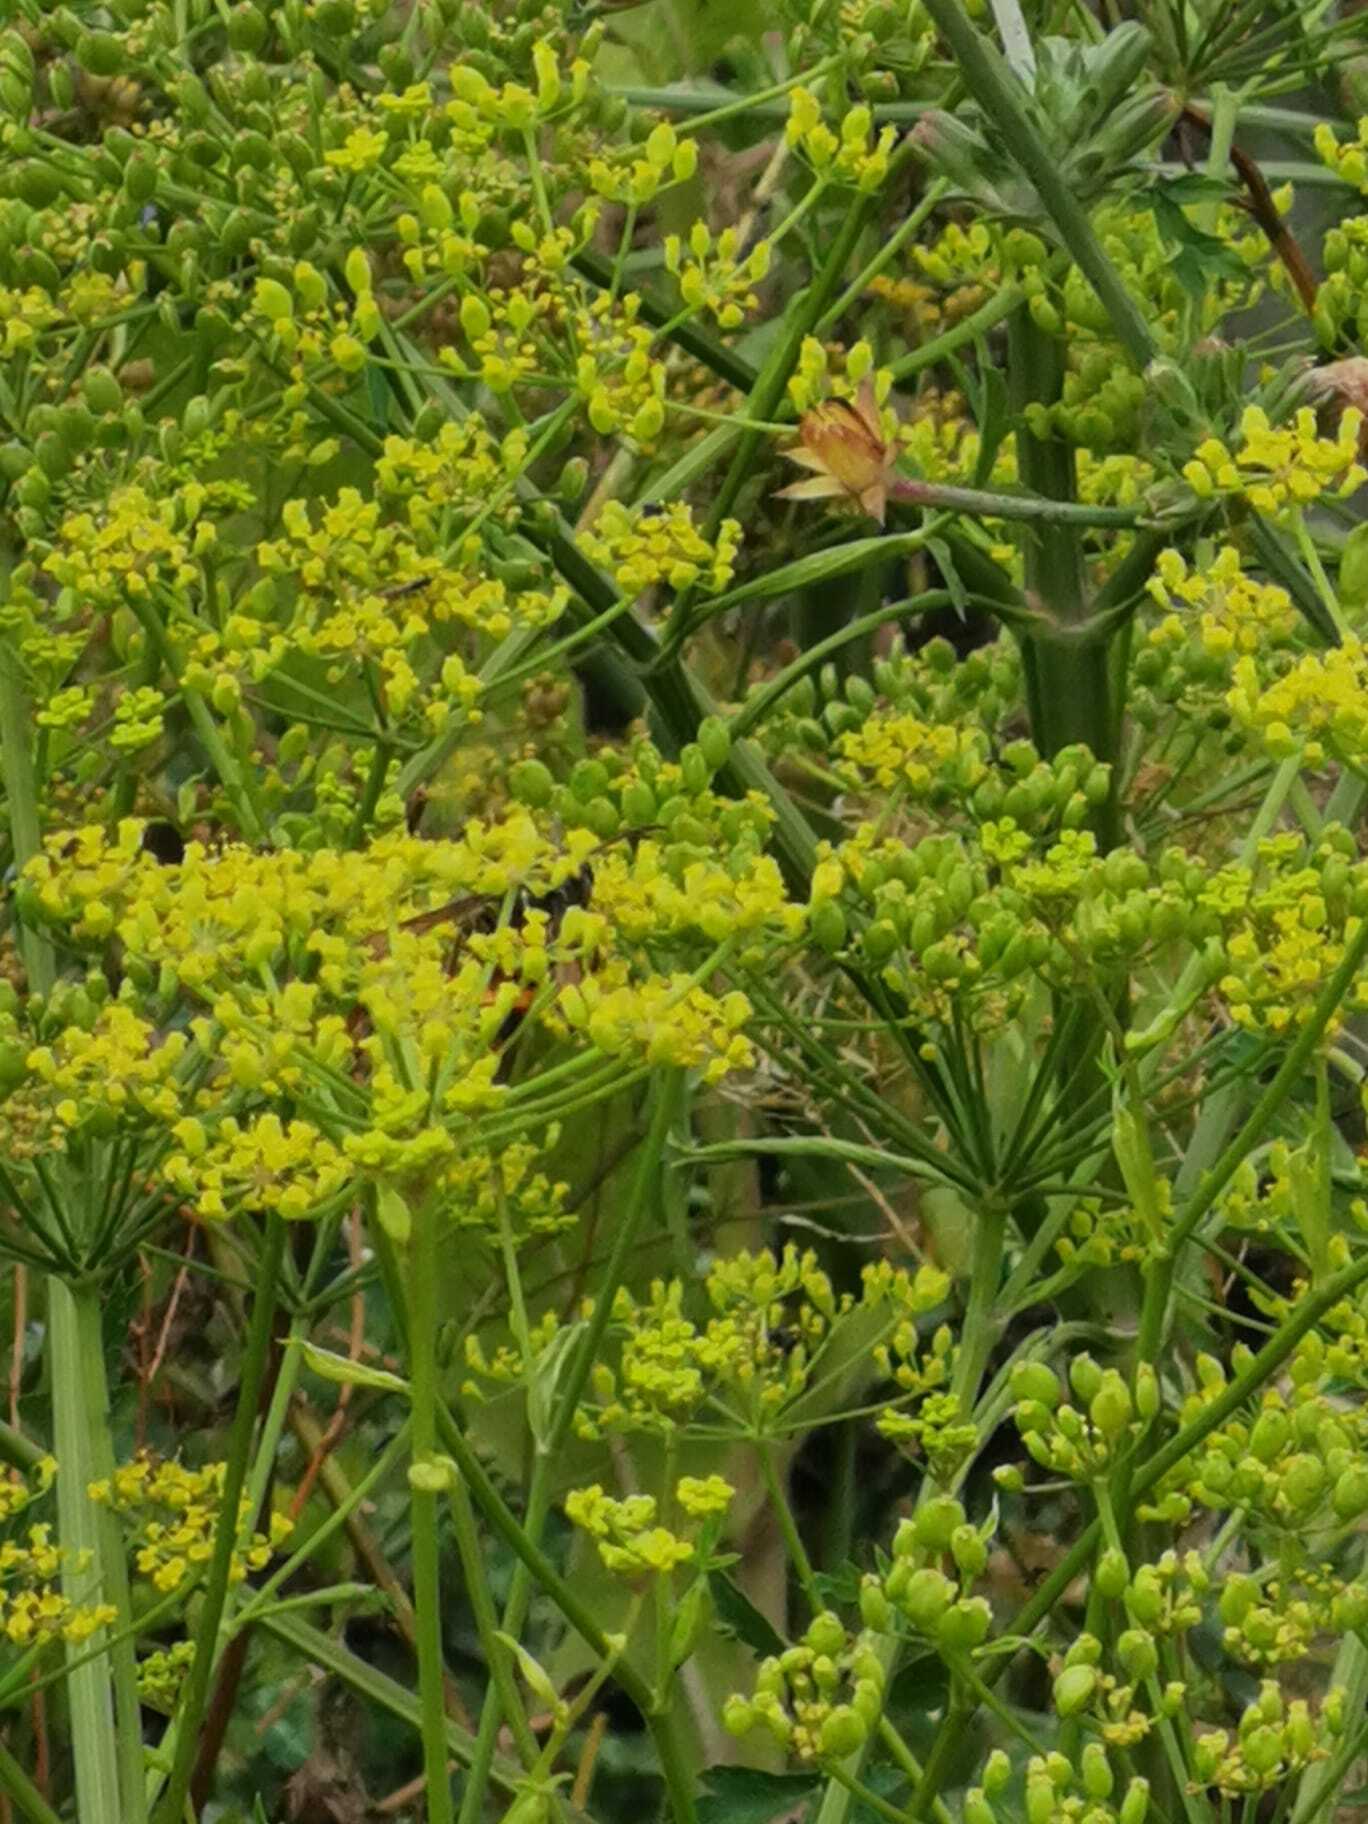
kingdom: Animalia
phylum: Arthropoda
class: Insecta
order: Hymenoptera
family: Vespidae
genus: Vespa
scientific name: Vespa velutina
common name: Asian hornet
